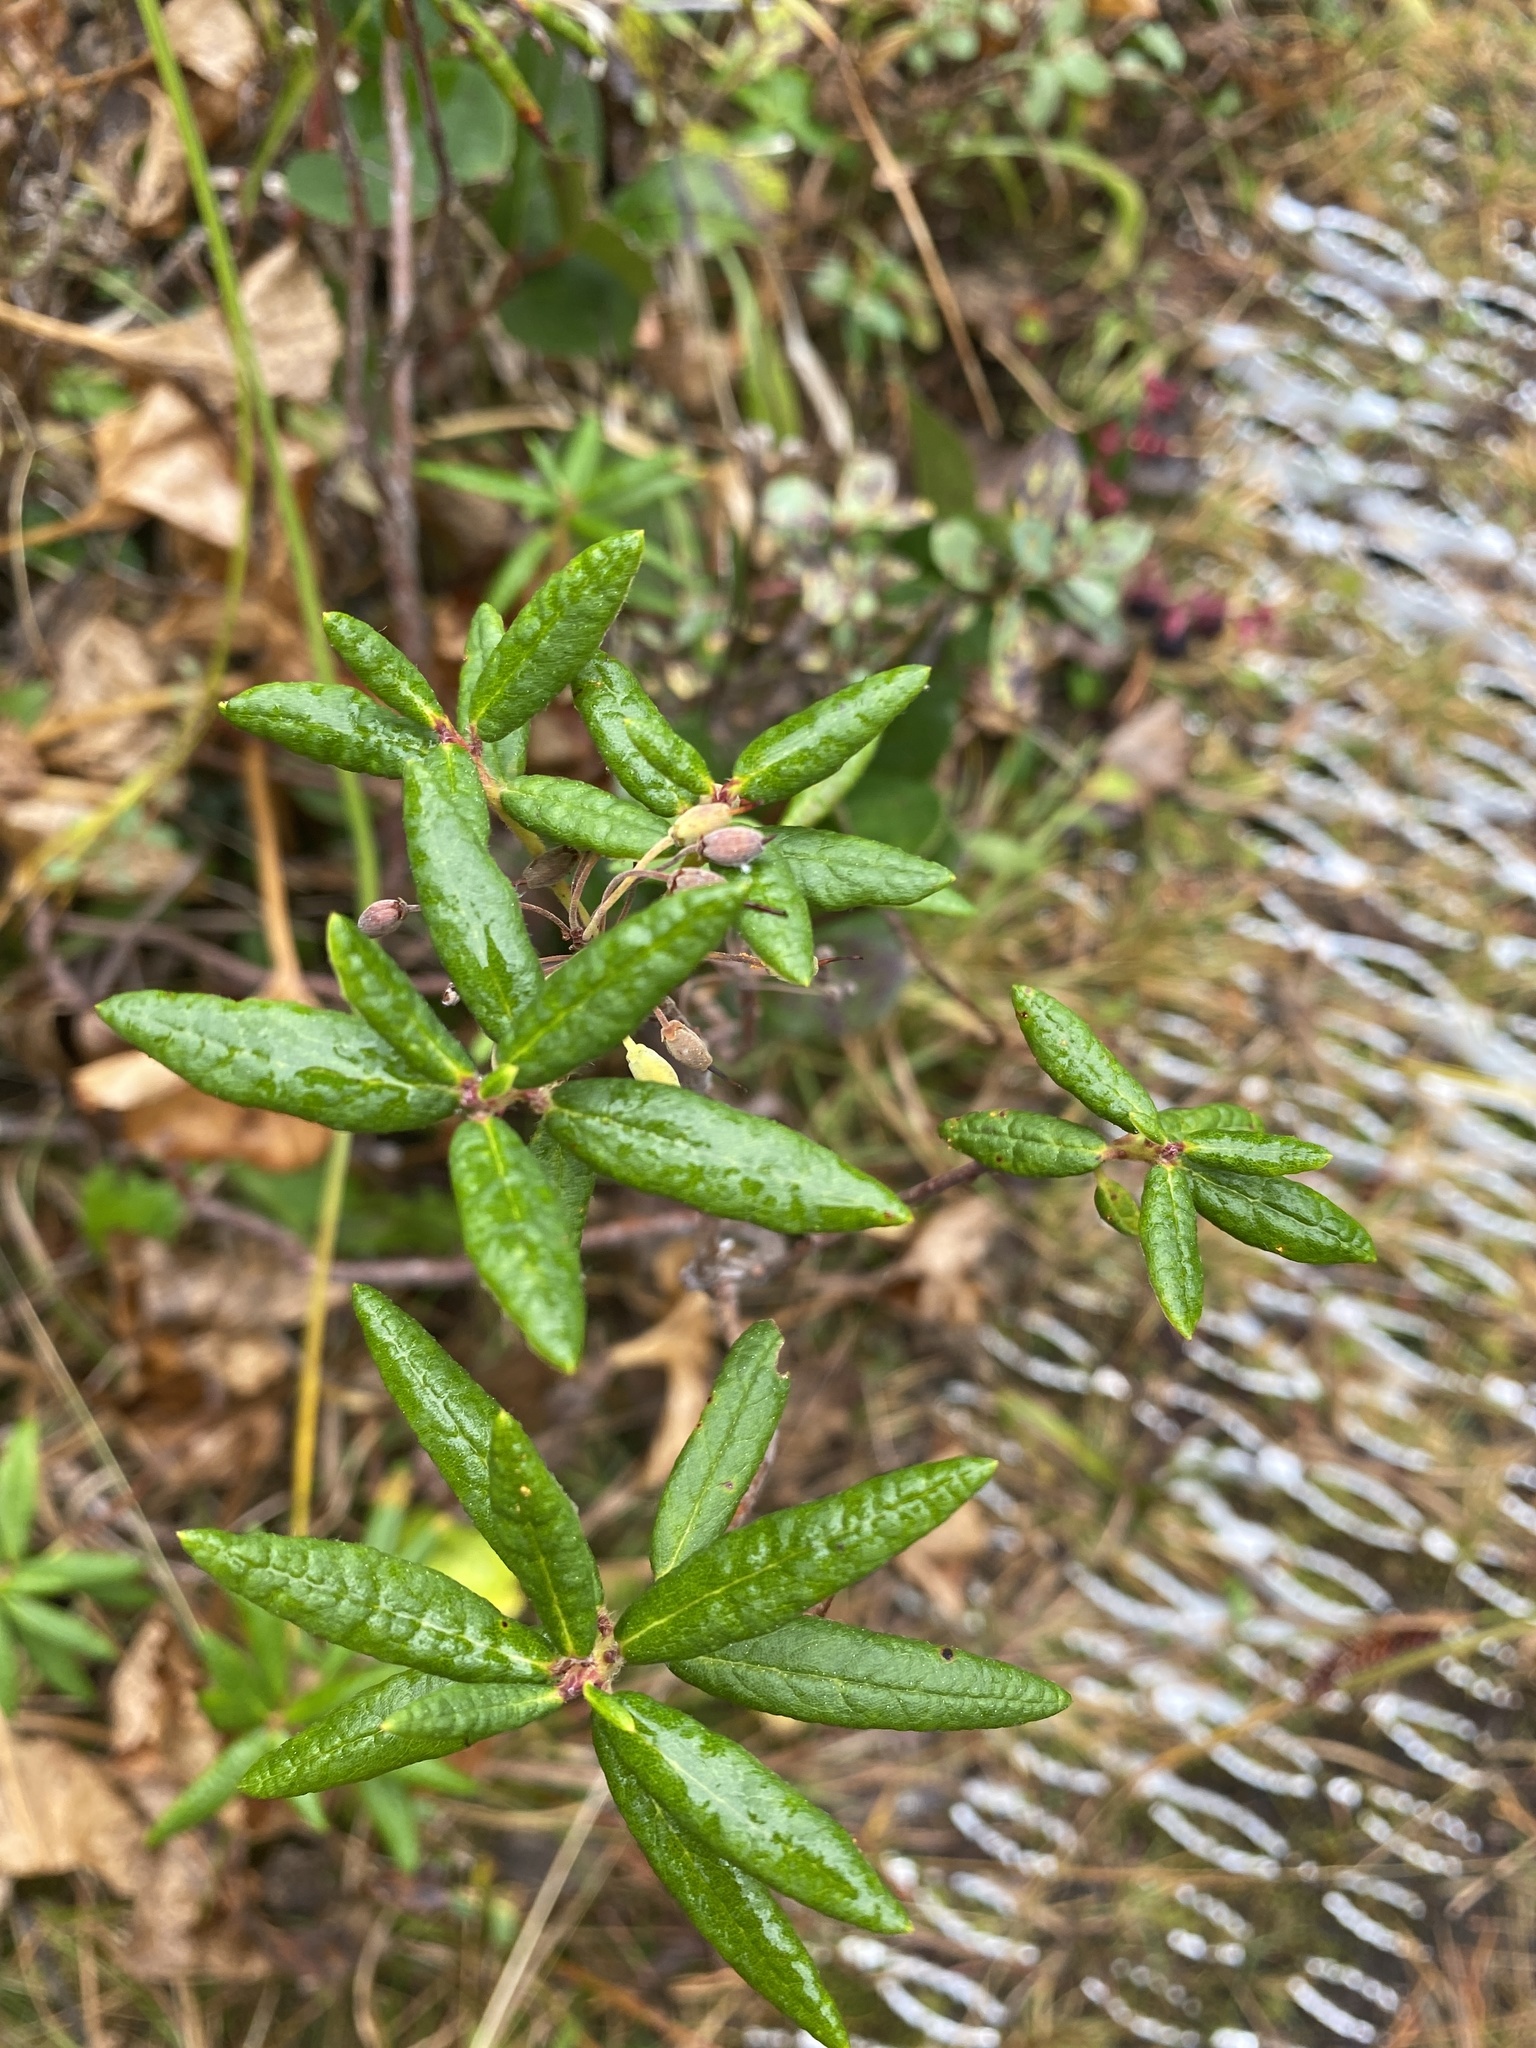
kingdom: Plantae
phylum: Tracheophyta
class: Magnoliopsida
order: Ericales
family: Ericaceae
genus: Rhododendron
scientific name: Rhododendron groenlandicum
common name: Bog labrador tea
